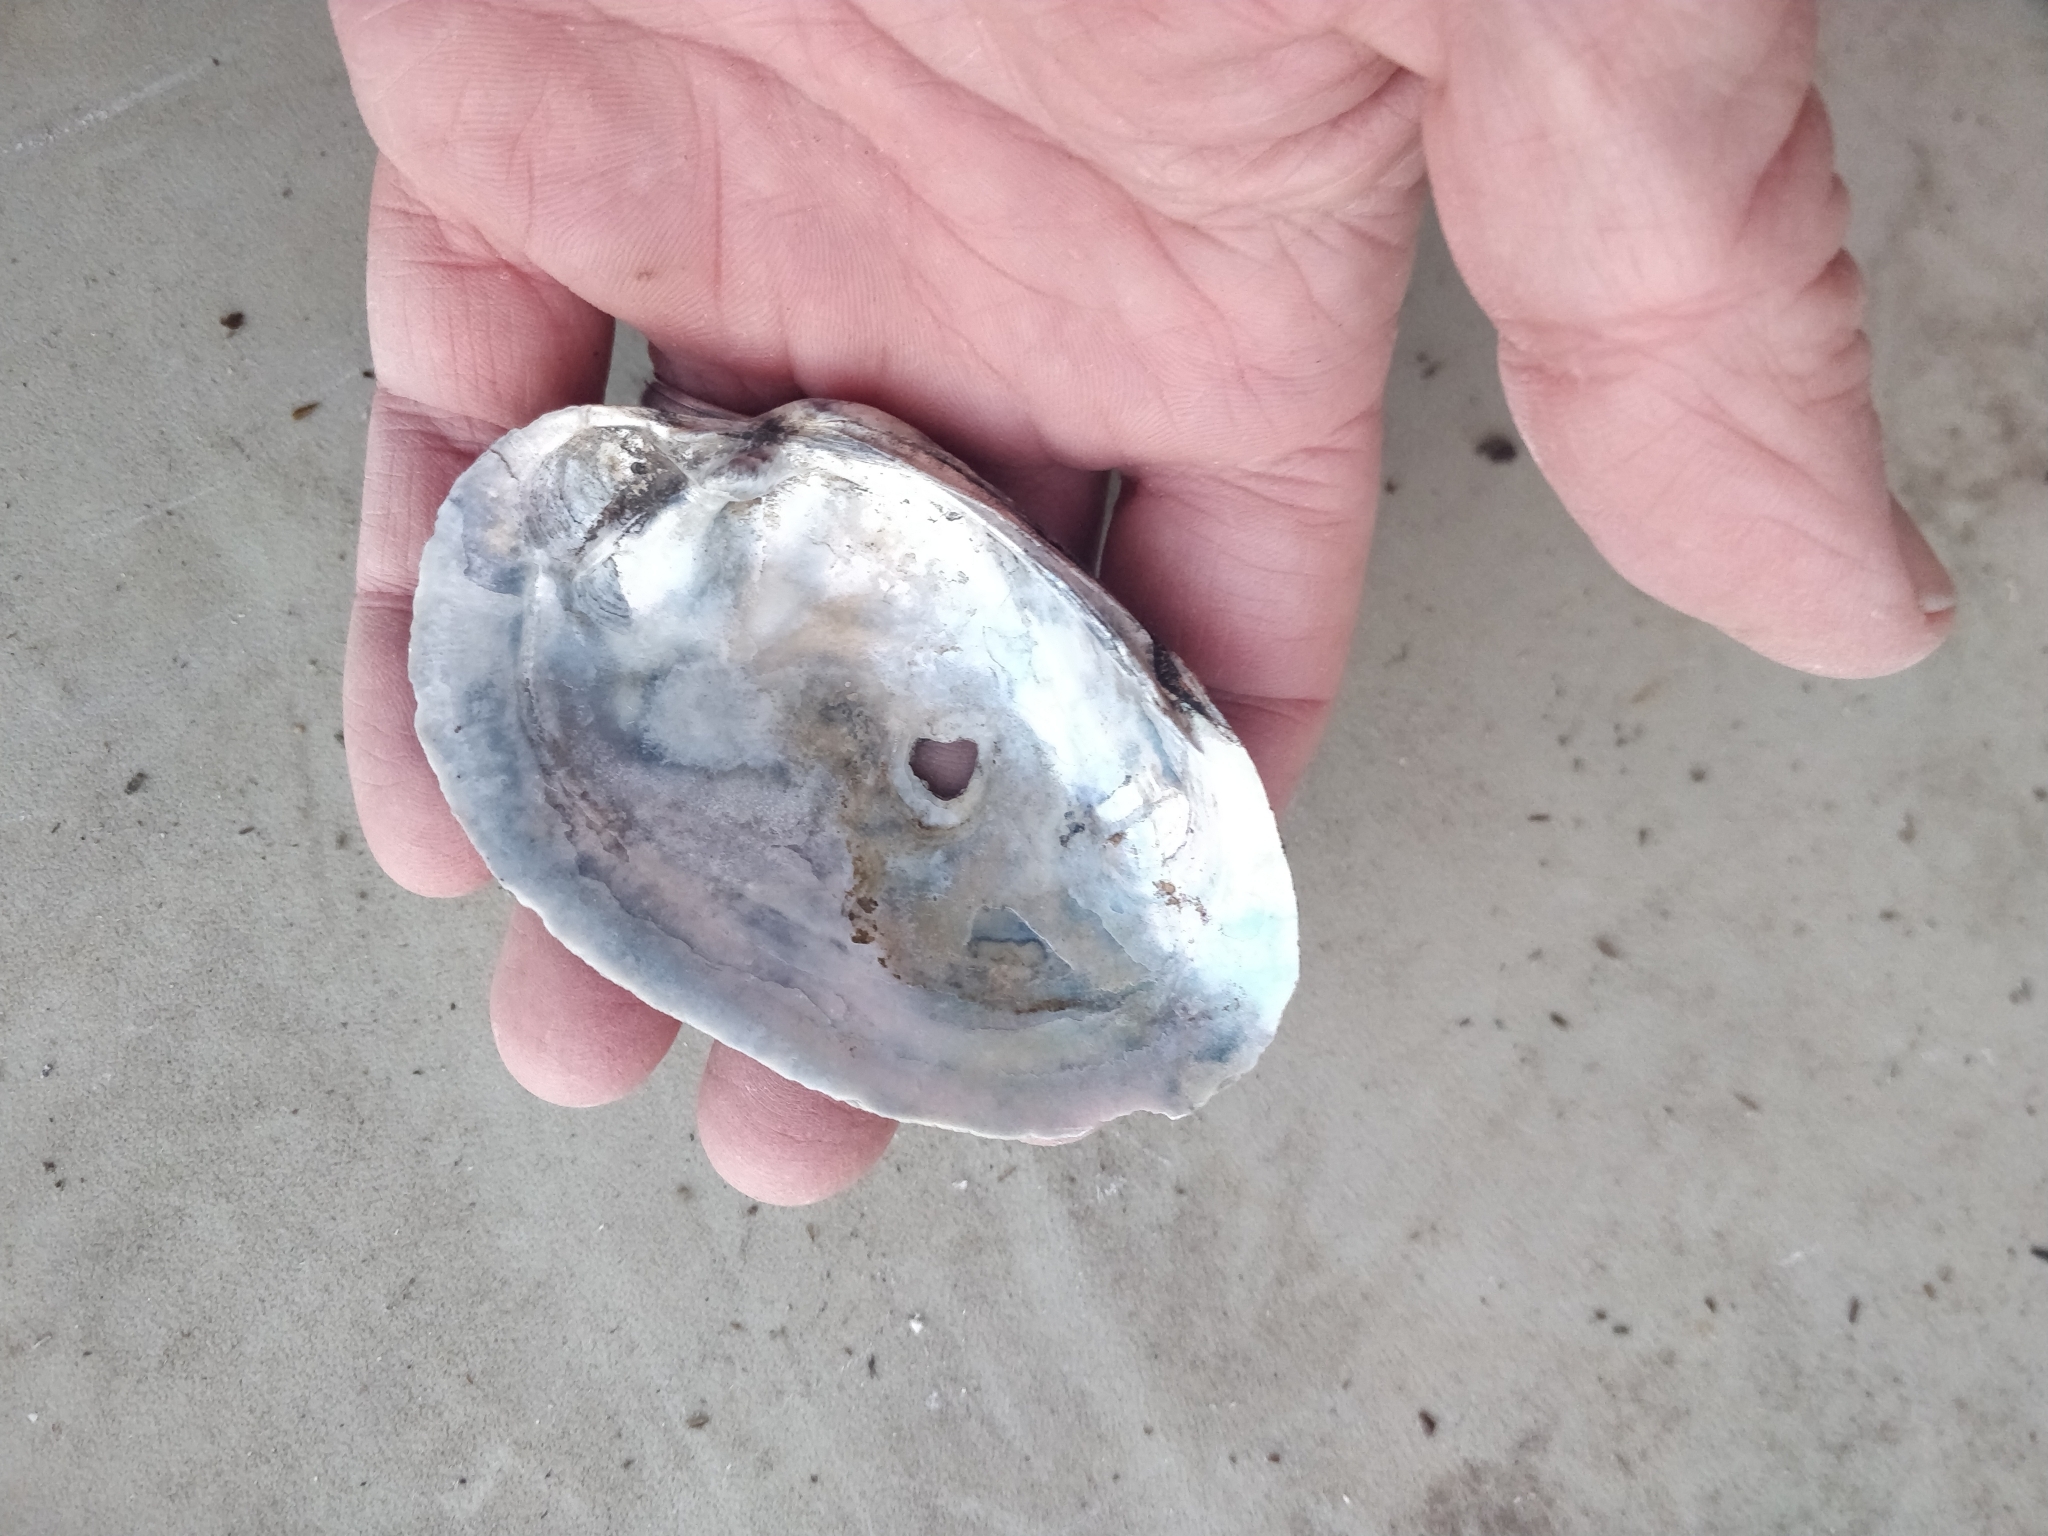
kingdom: Animalia
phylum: Mollusca
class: Bivalvia
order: Unionida
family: Unionidae
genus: Lampsilis
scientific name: Lampsilis cardium
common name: Plain pocketbook
